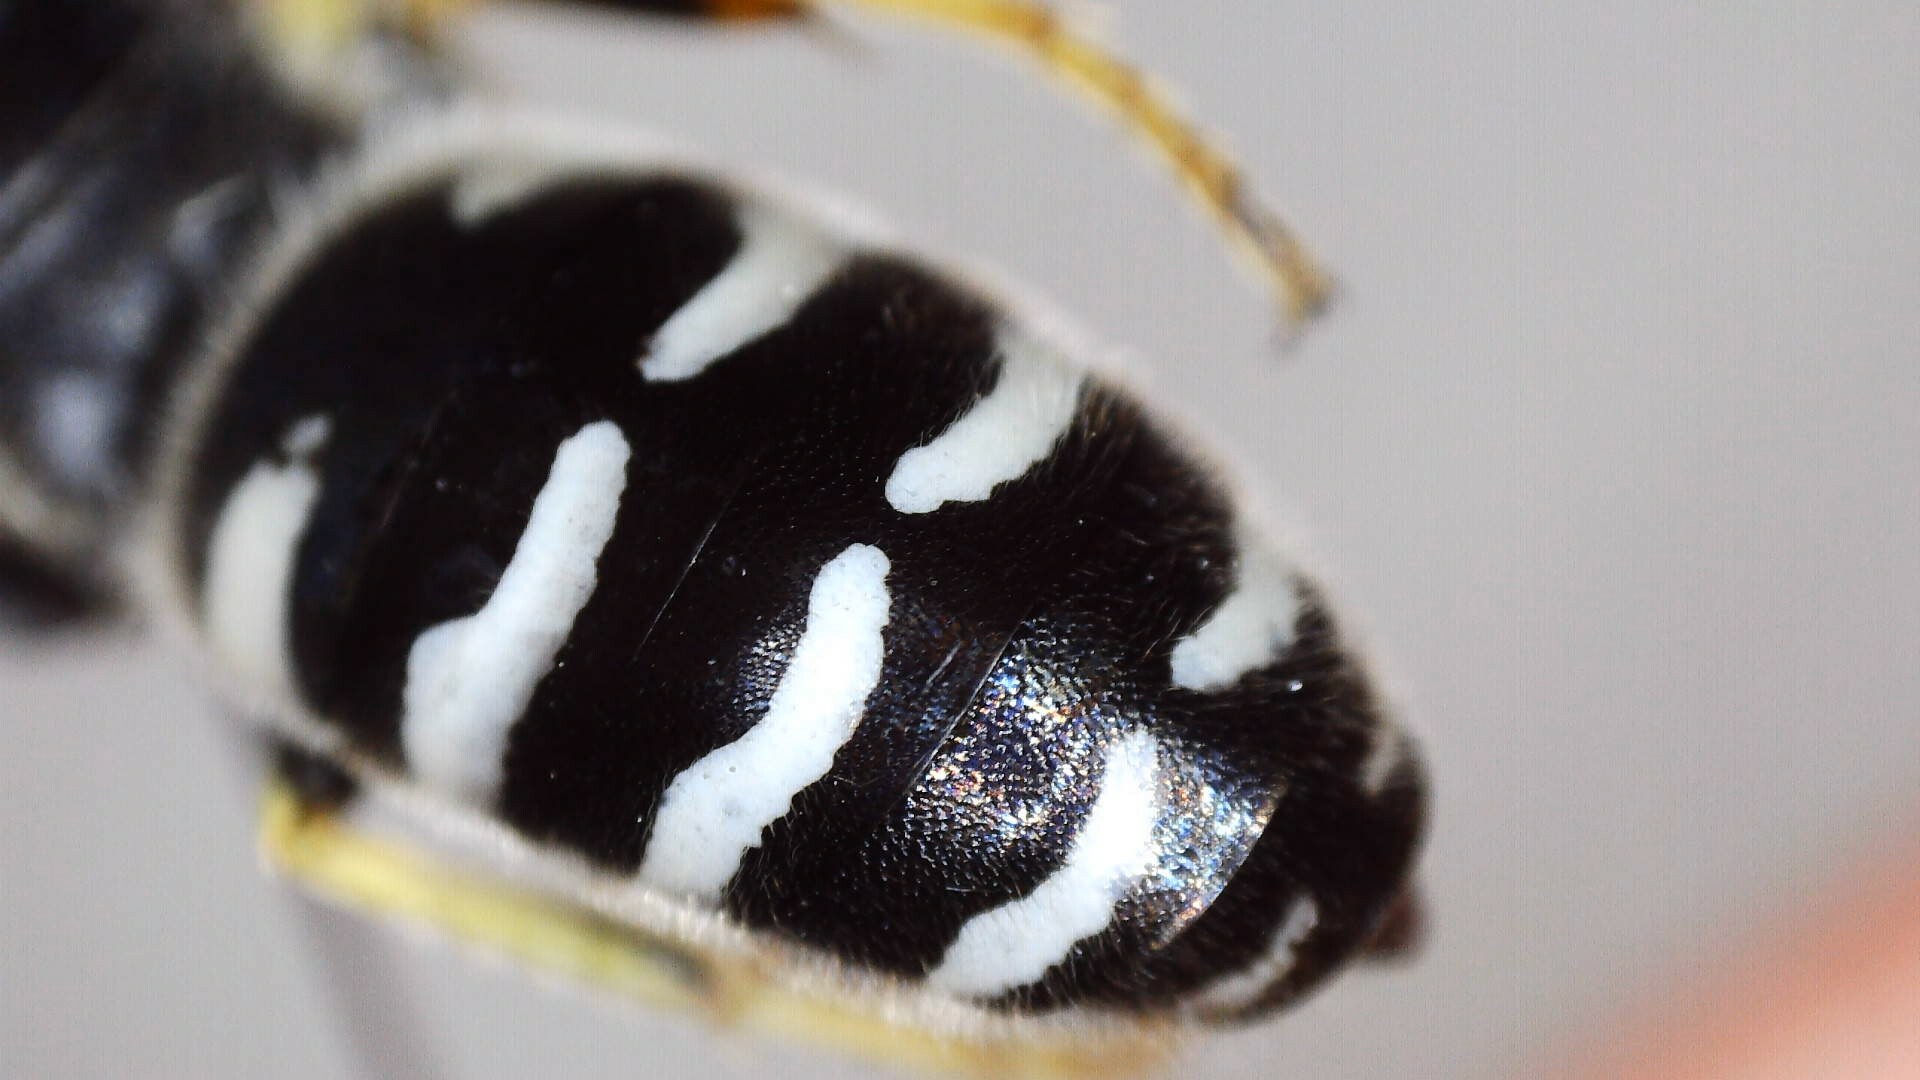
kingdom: Animalia
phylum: Arthropoda
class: Insecta
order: Hymenoptera
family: Crabronidae
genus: Bembix
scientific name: Bembix americana
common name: American sand wasp
